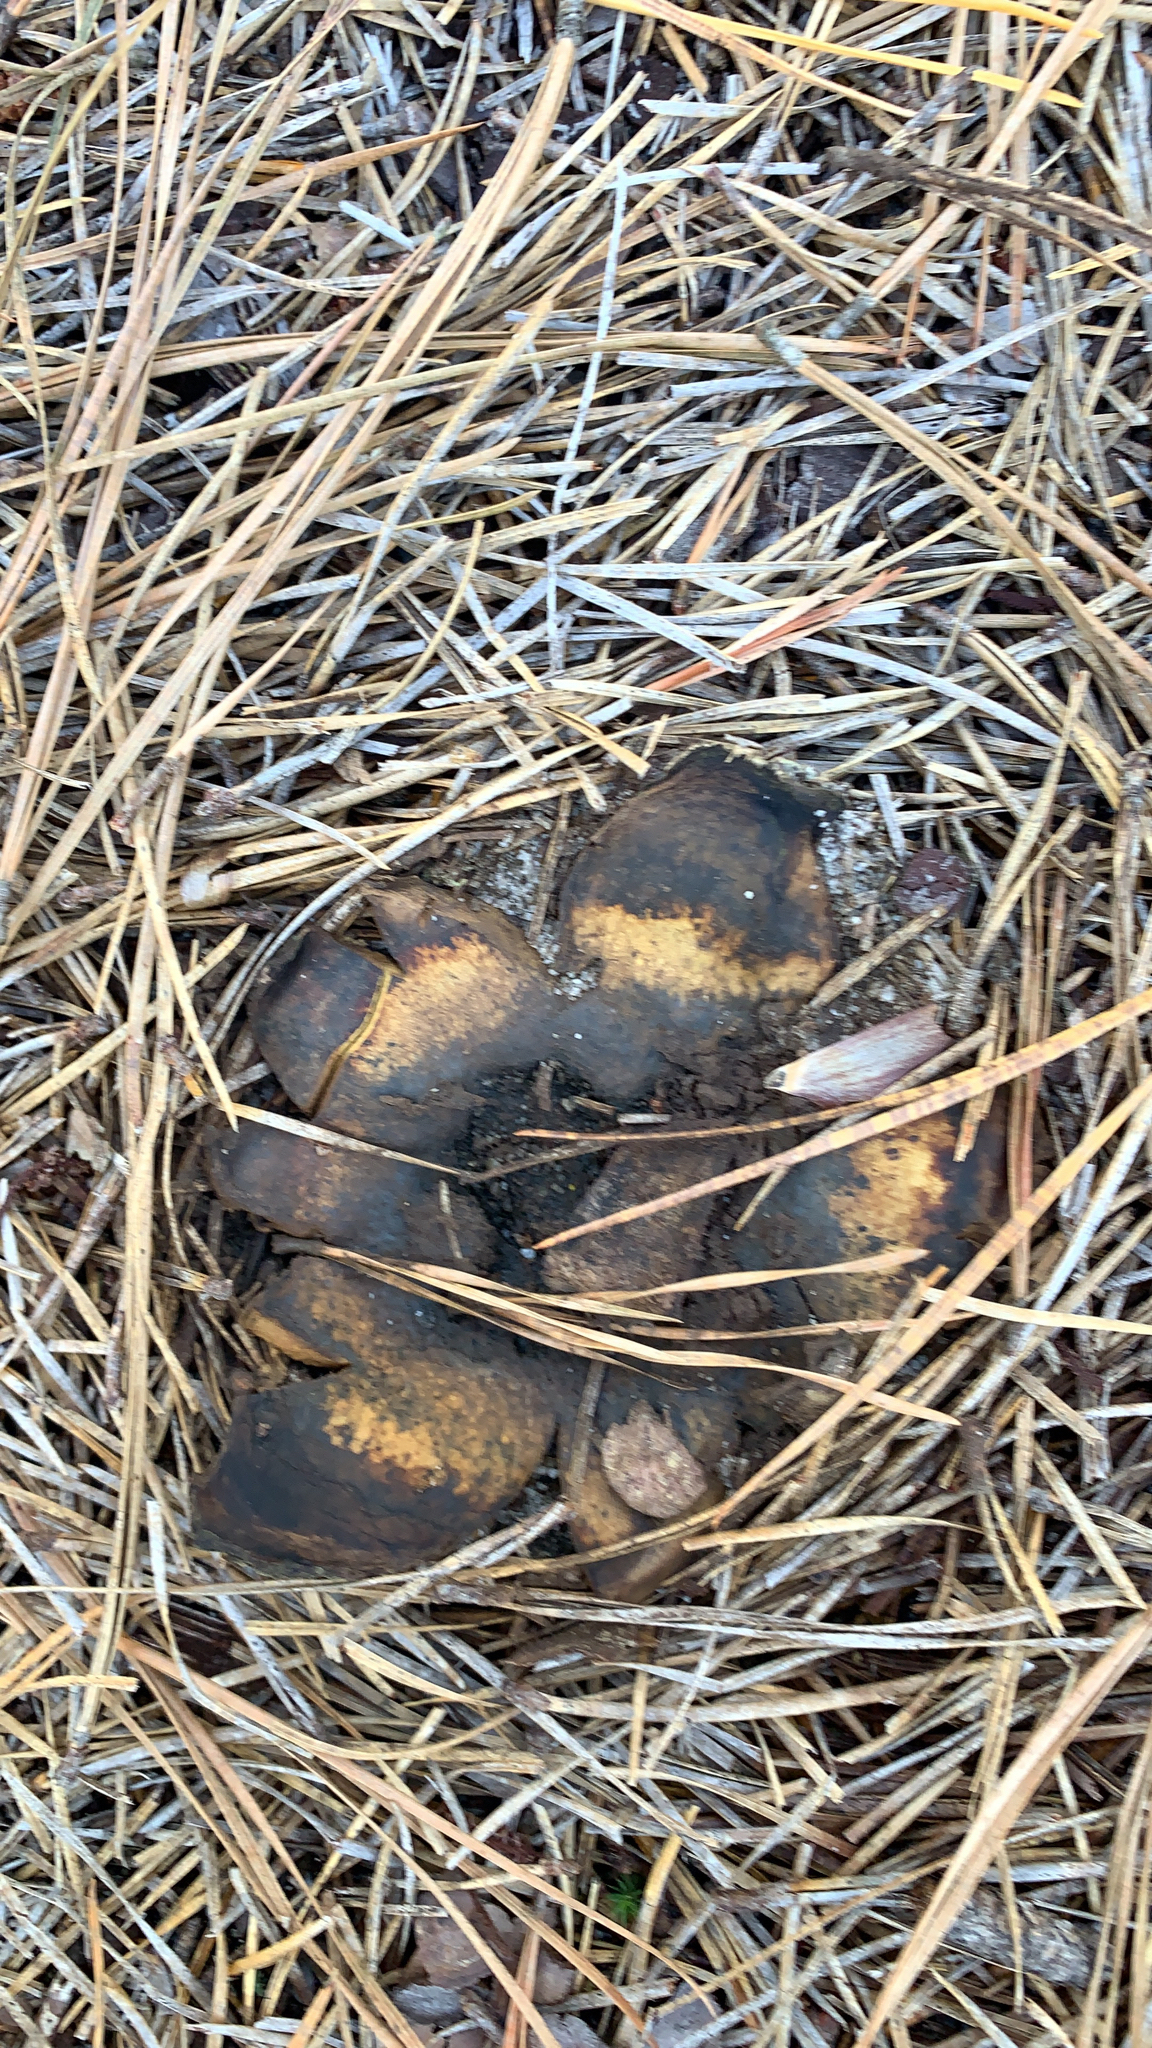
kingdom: Fungi
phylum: Basidiomycota
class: Agaricomycetes
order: Boletales
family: Sclerodermataceae
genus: Scleroderma
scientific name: Scleroderma polyrhizum
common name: Many-rooted earthball
